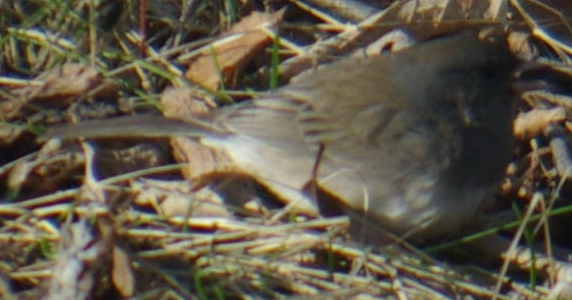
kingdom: Animalia
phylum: Chordata
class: Aves
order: Passeriformes
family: Passerellidae
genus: Junco
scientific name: Junco hyemalis
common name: Dark-eyed junco
